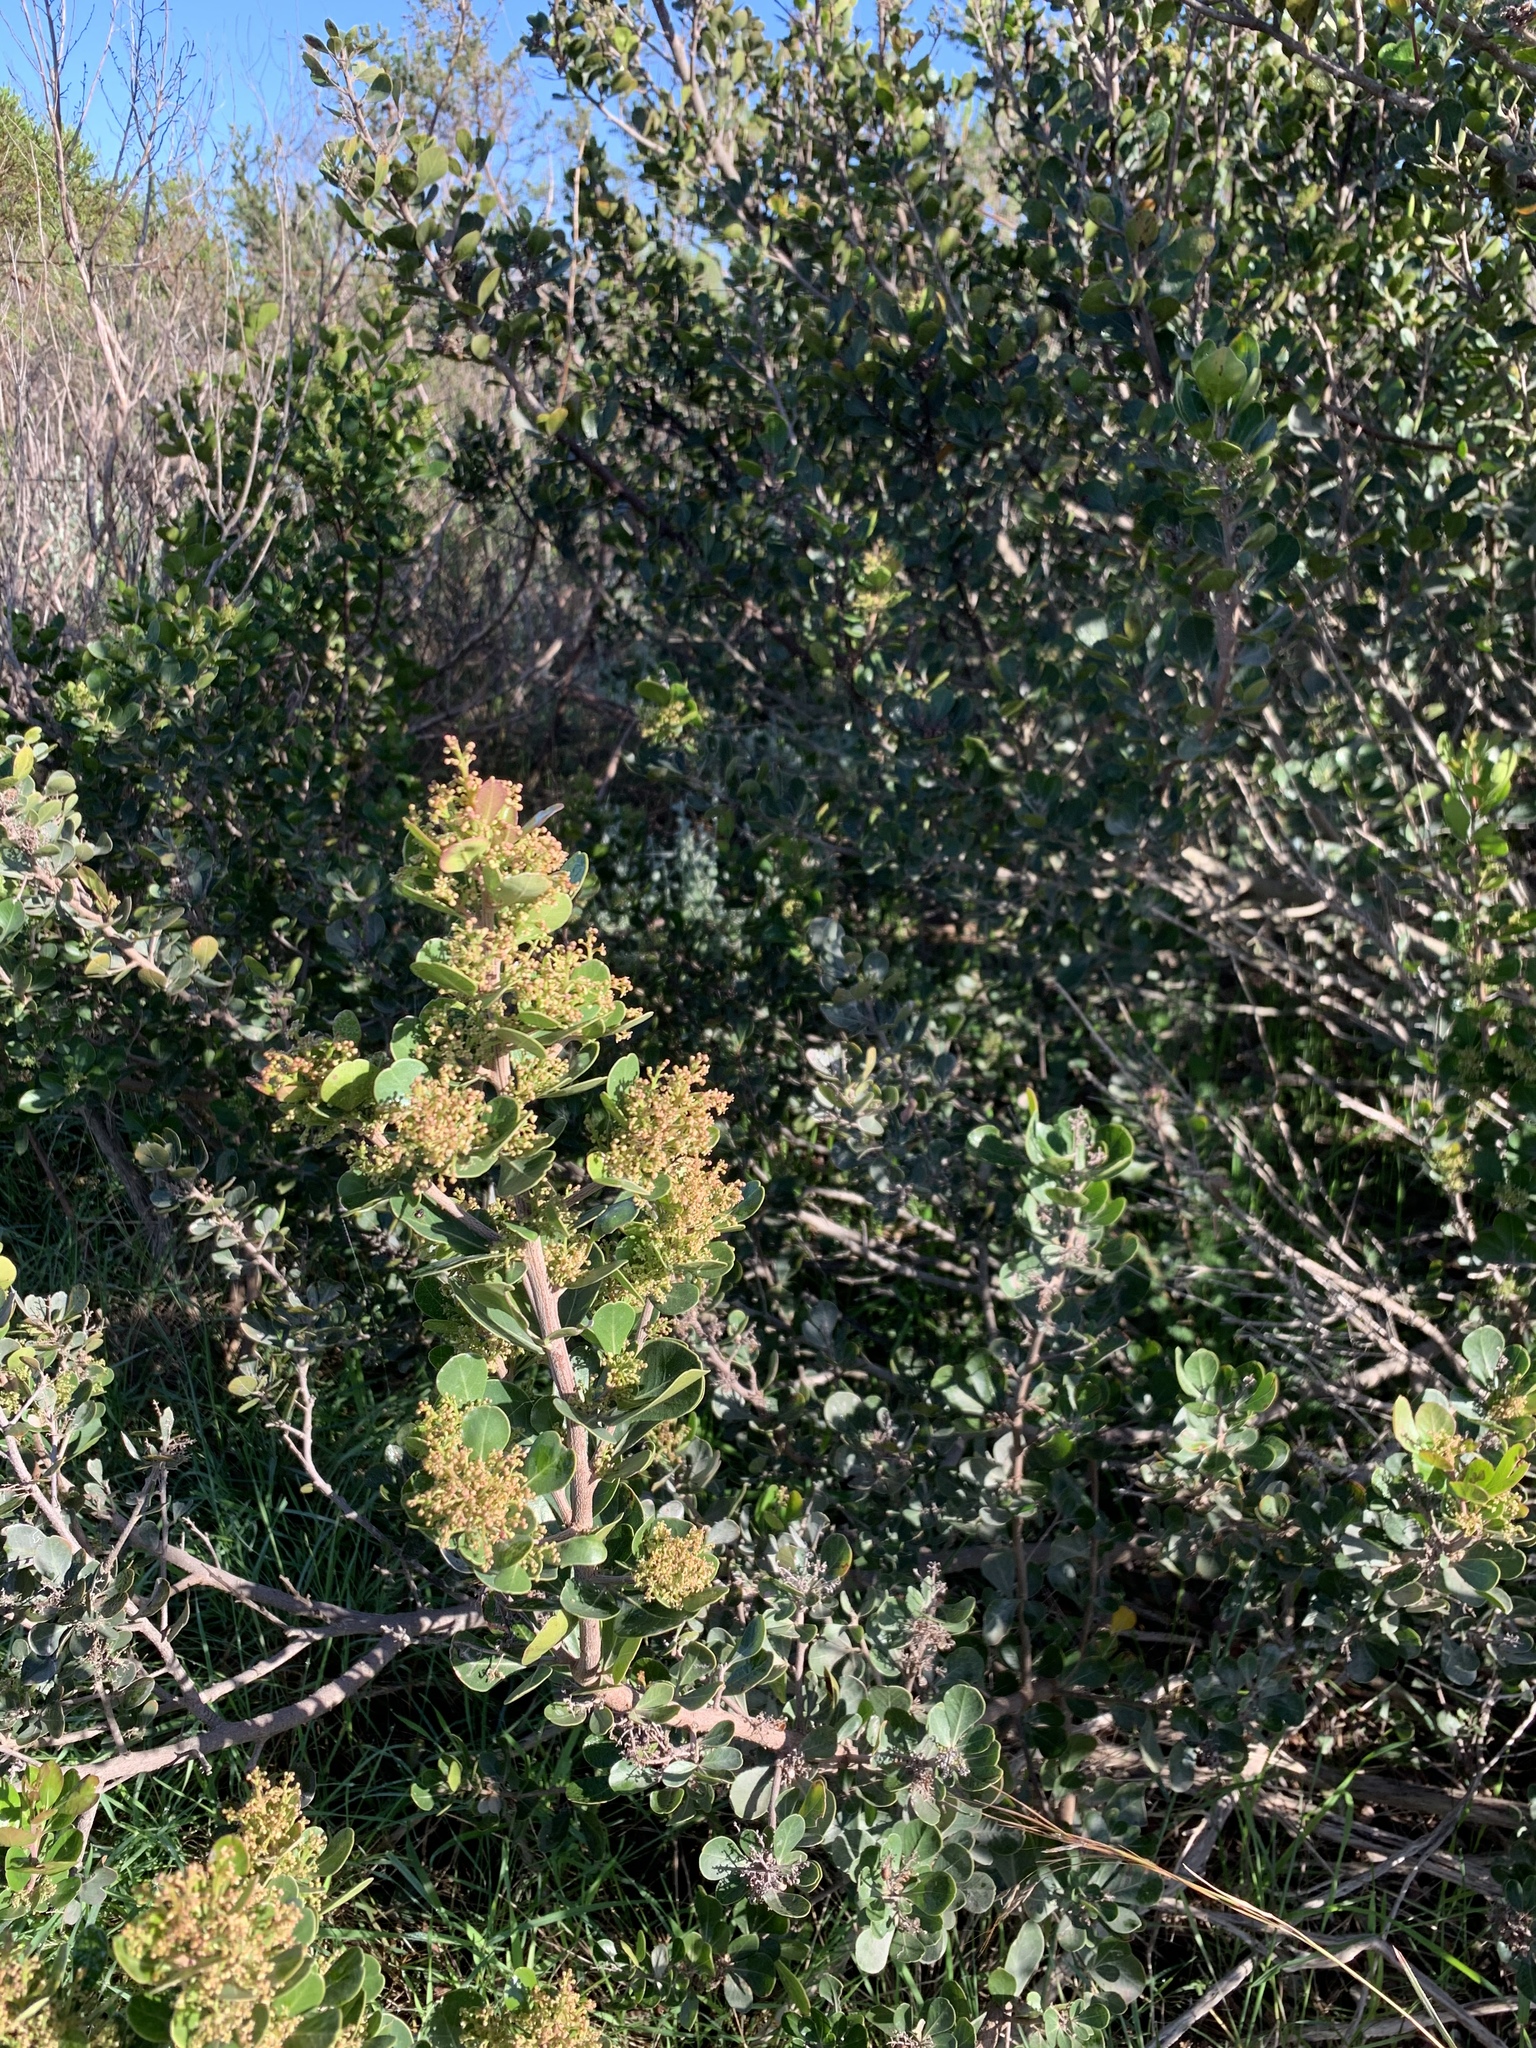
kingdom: Plantae
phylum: Tracheophyta
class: Magnoliopsida
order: Sapindales
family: Anacardiaceae
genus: Searsia
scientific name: Searsia lucida
